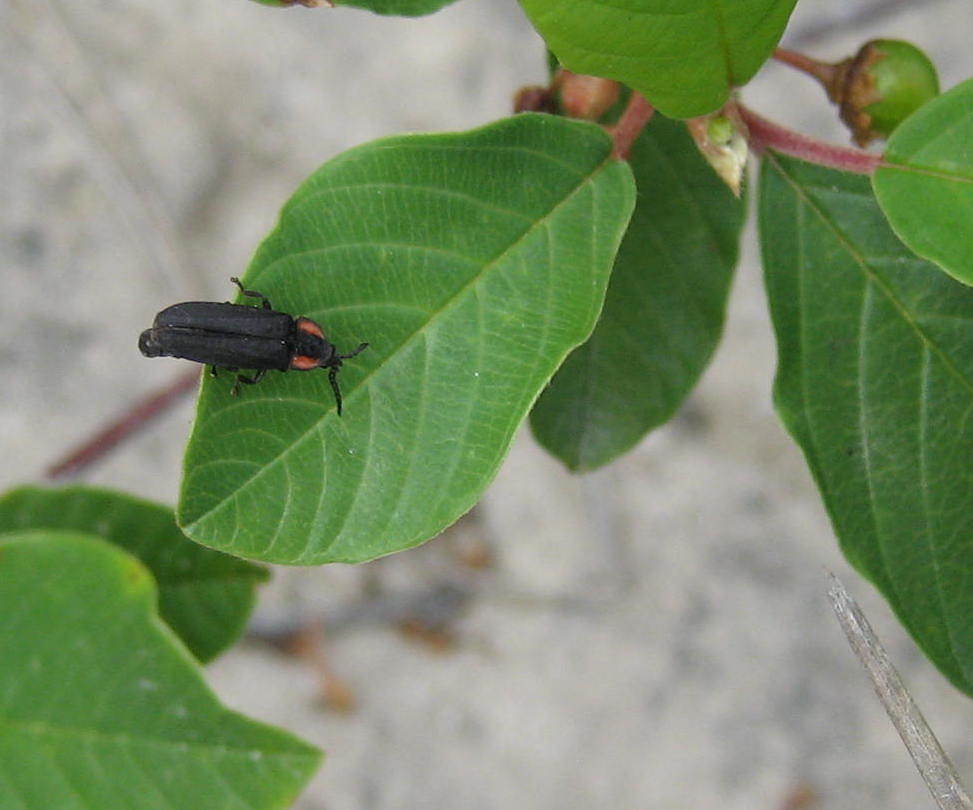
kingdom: Animalia
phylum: Arthropoda
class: Insecta
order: Coleoptera
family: Lampyridae
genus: Pyropyga
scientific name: Pyropyga nigricans
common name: Dark firefly
